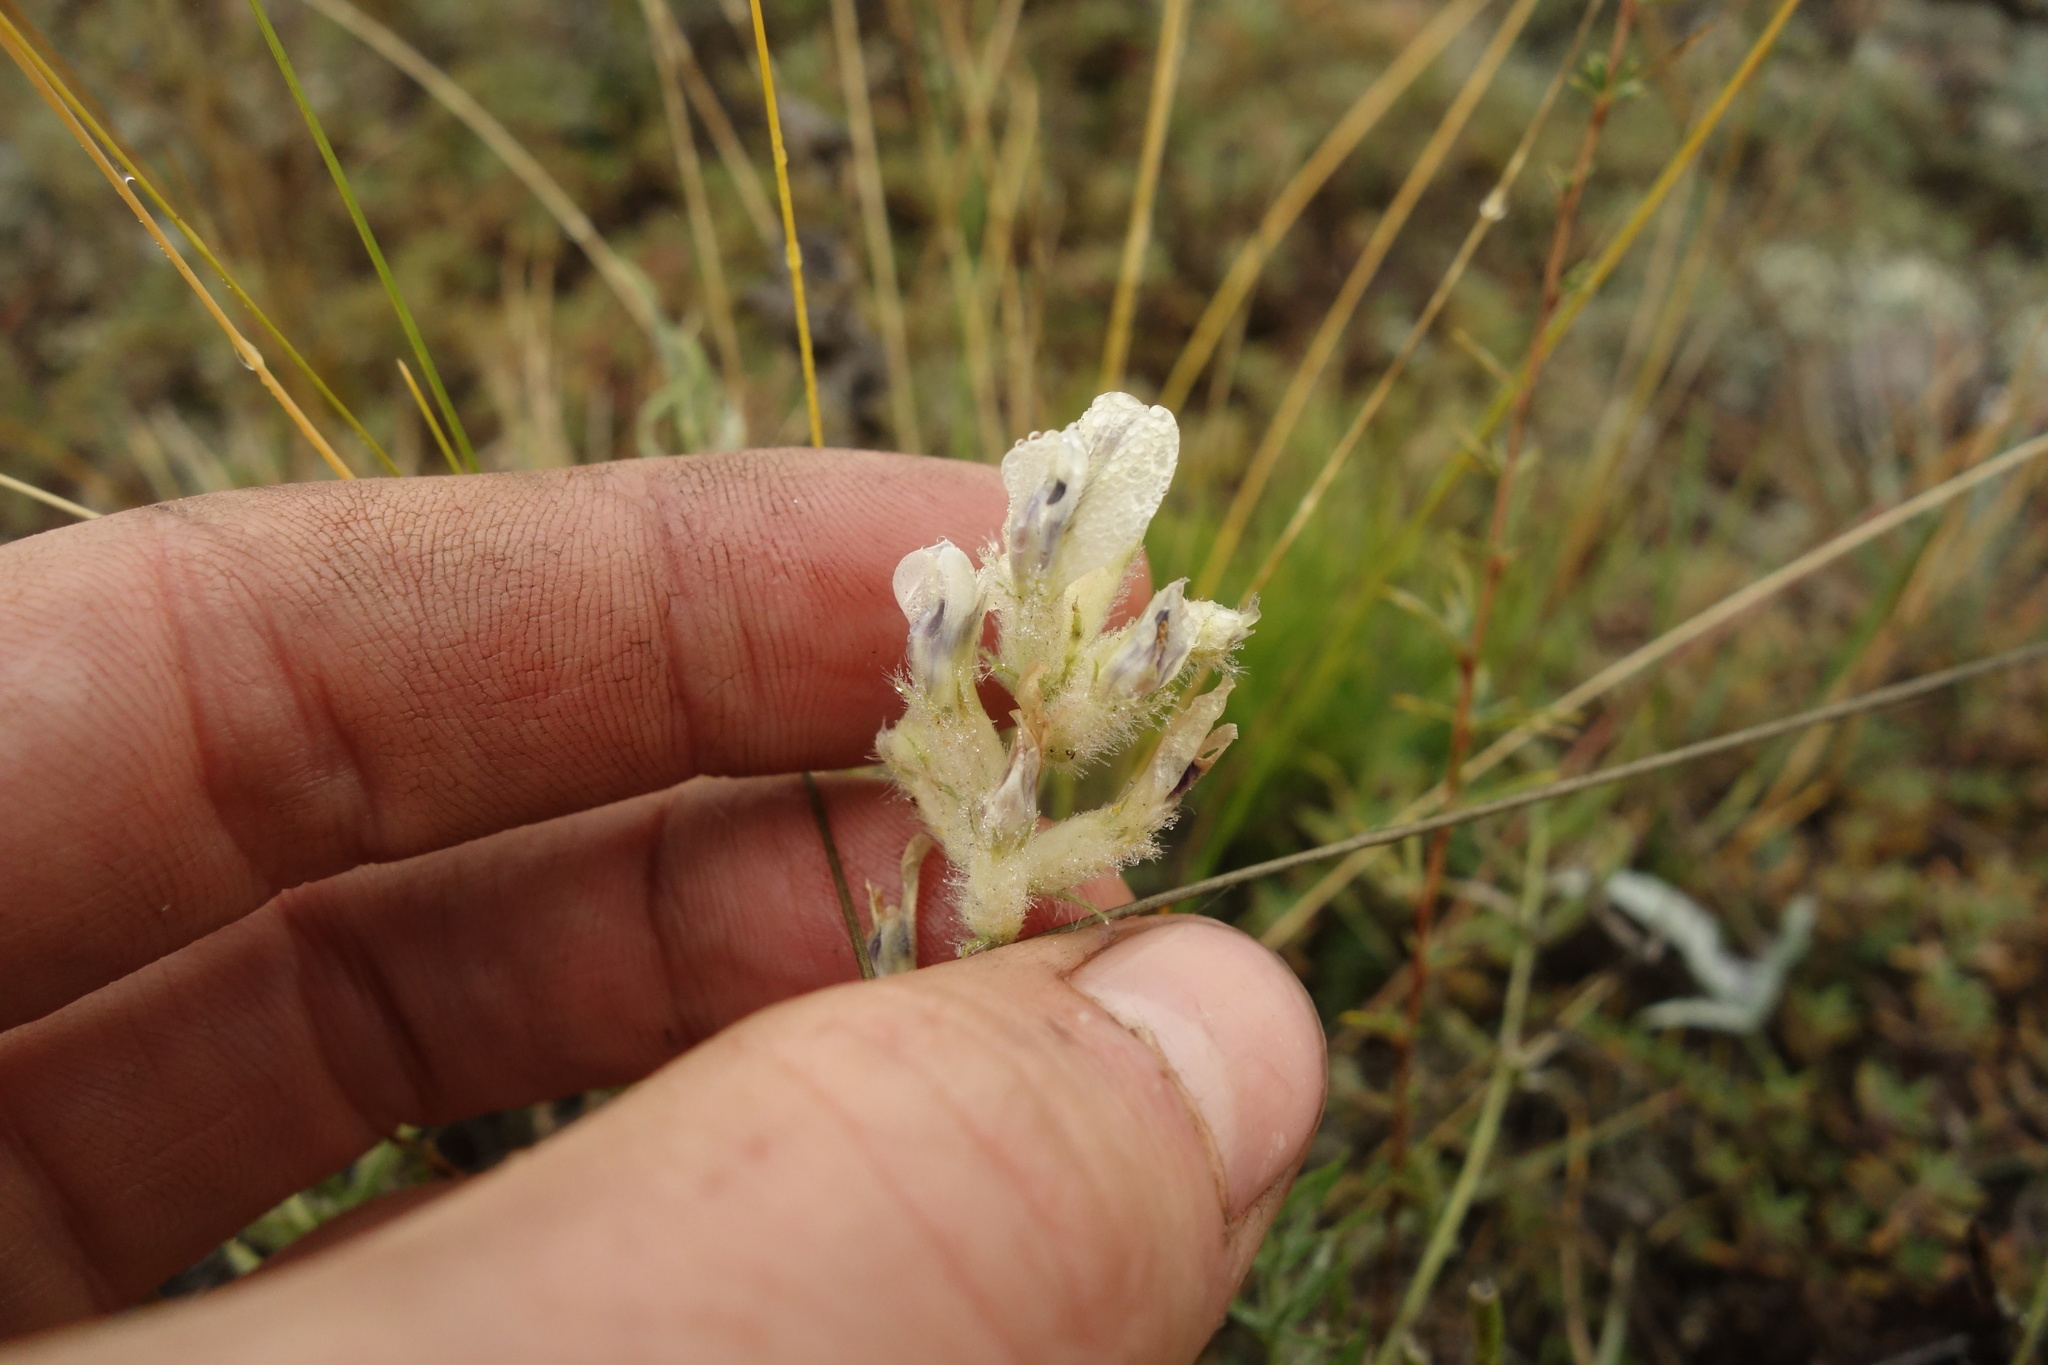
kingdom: Plantae
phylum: Tracheophyta
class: Magnoliopsida
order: Fabales
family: Fabaceae
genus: Oxytropis
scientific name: Oxytropis oxyphylla
